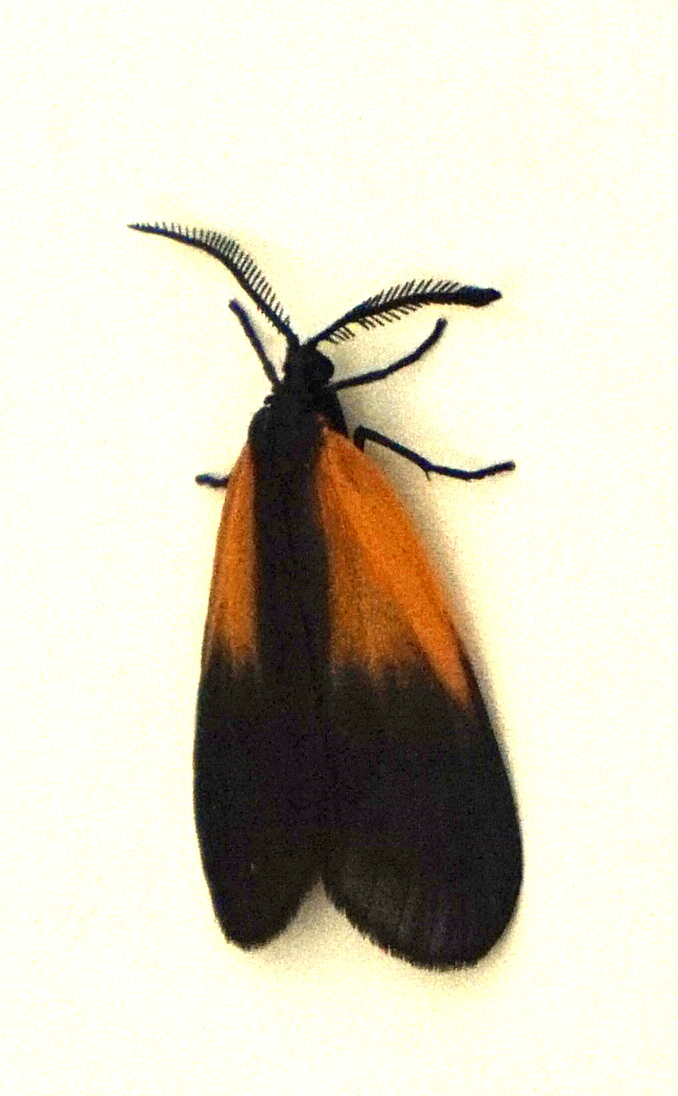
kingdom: Animalia
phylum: Arthropoda
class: Insecta
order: Lepidoptera
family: Zygaenidae
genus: Malthaca
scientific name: Malthaca dimidiata
